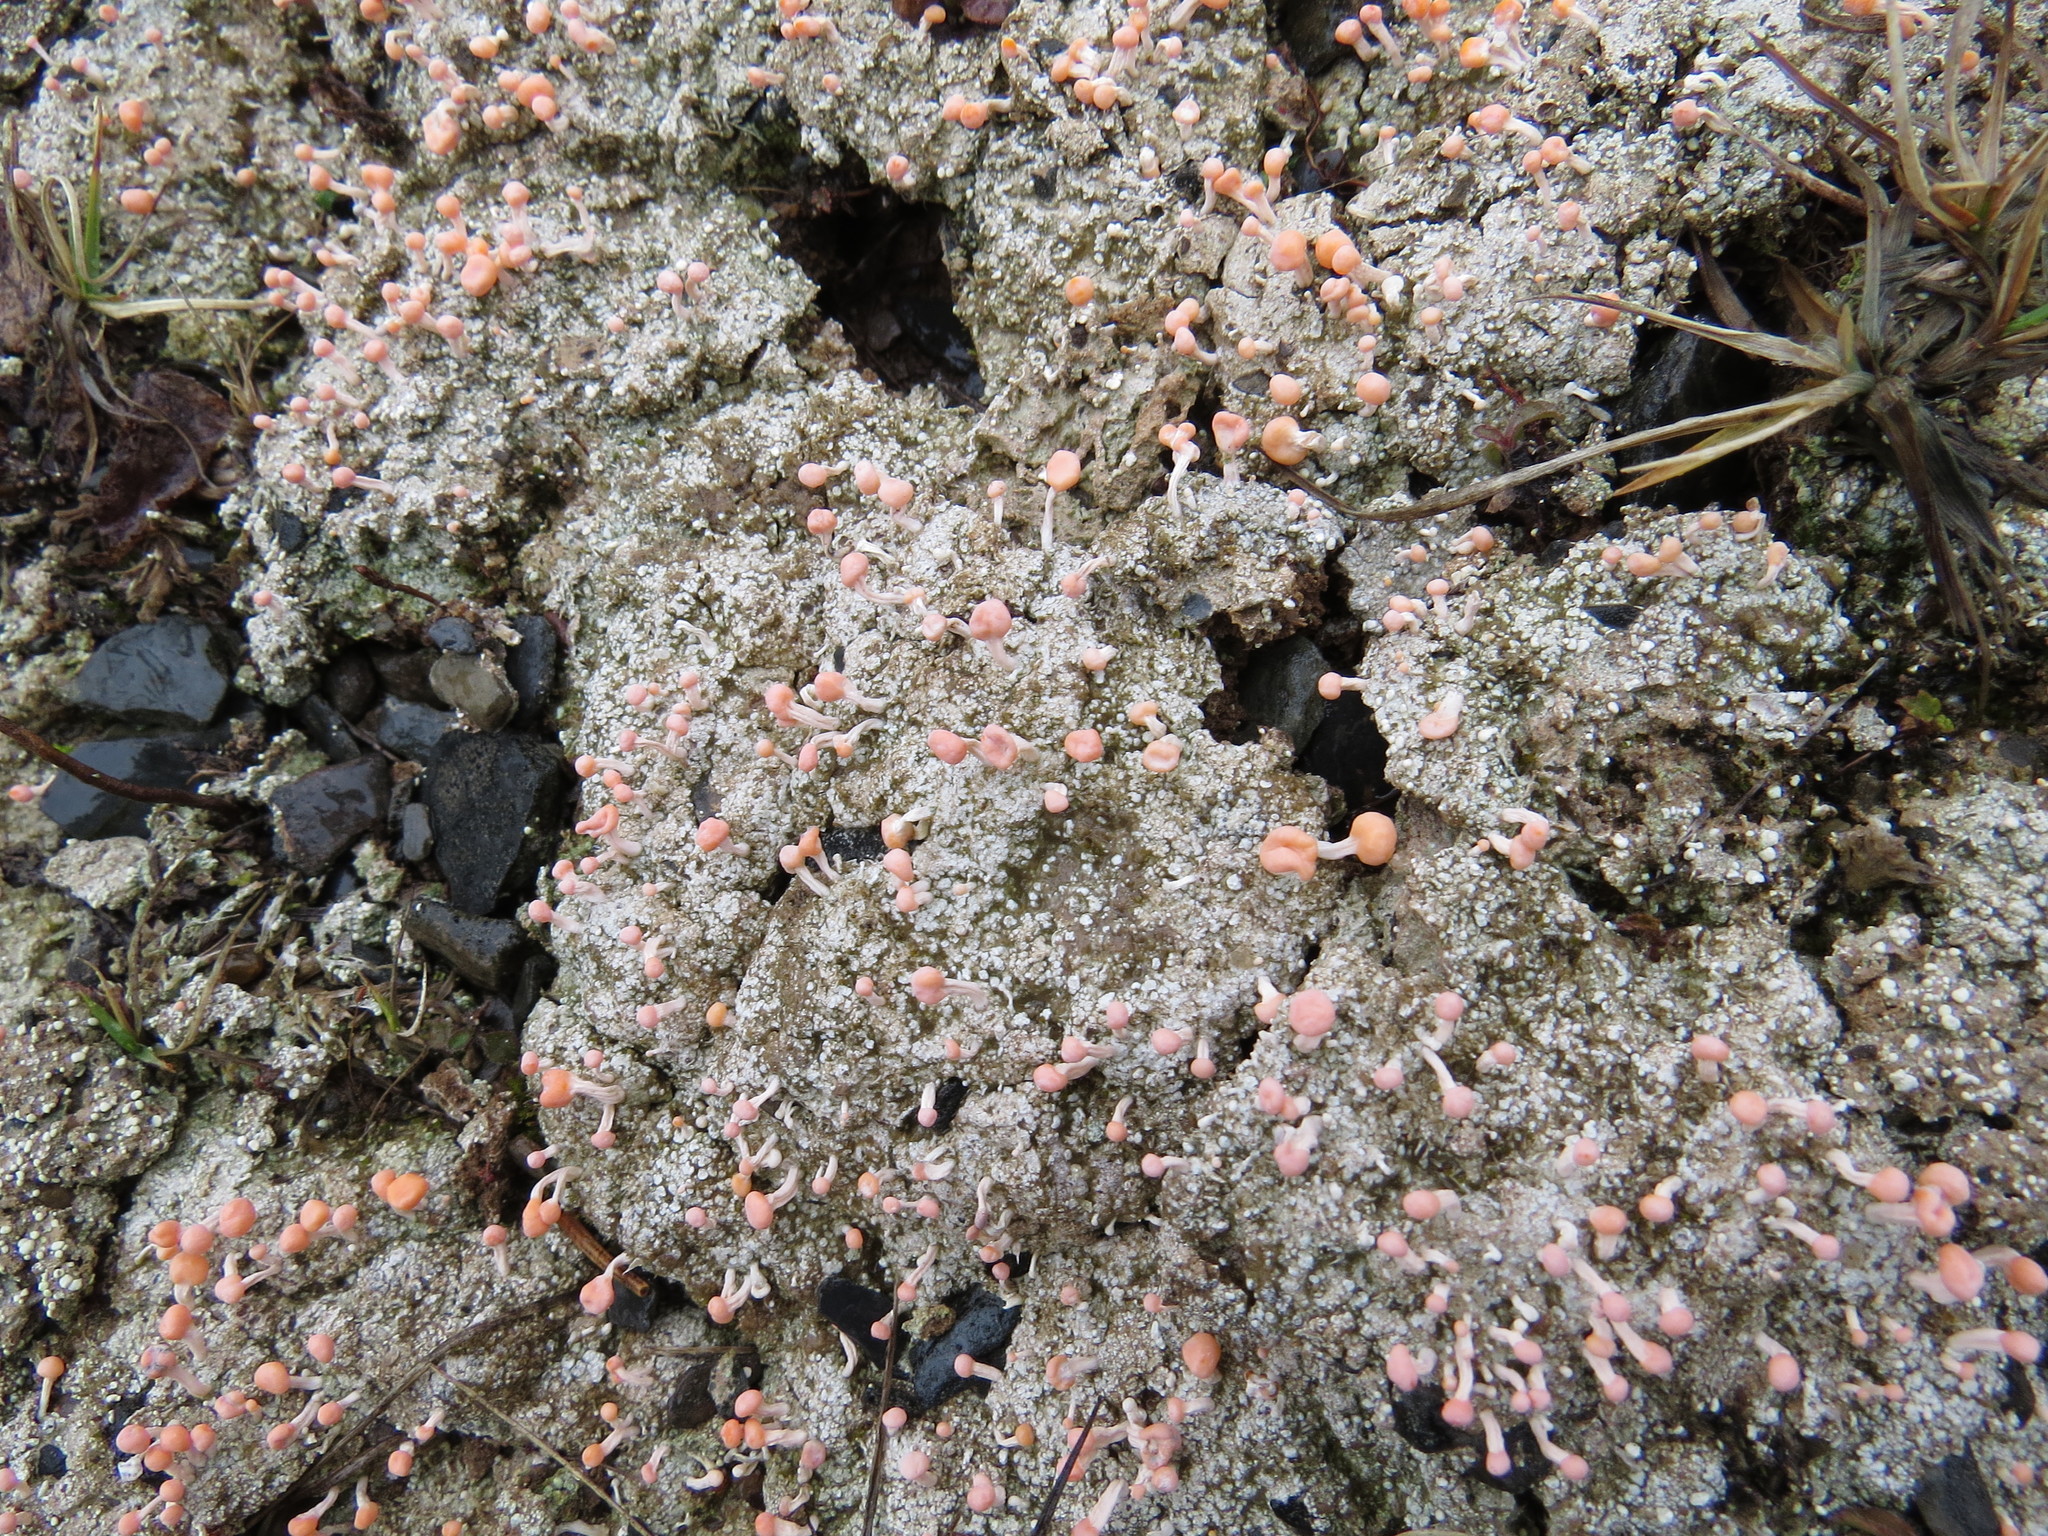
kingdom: Fungi
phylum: Ascomycota
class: Lecanoromycetes
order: Pertusariales
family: Icmadophilaceae
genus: Dibaeis
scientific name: Dibaeis baeomyces
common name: Pink earth lichen
